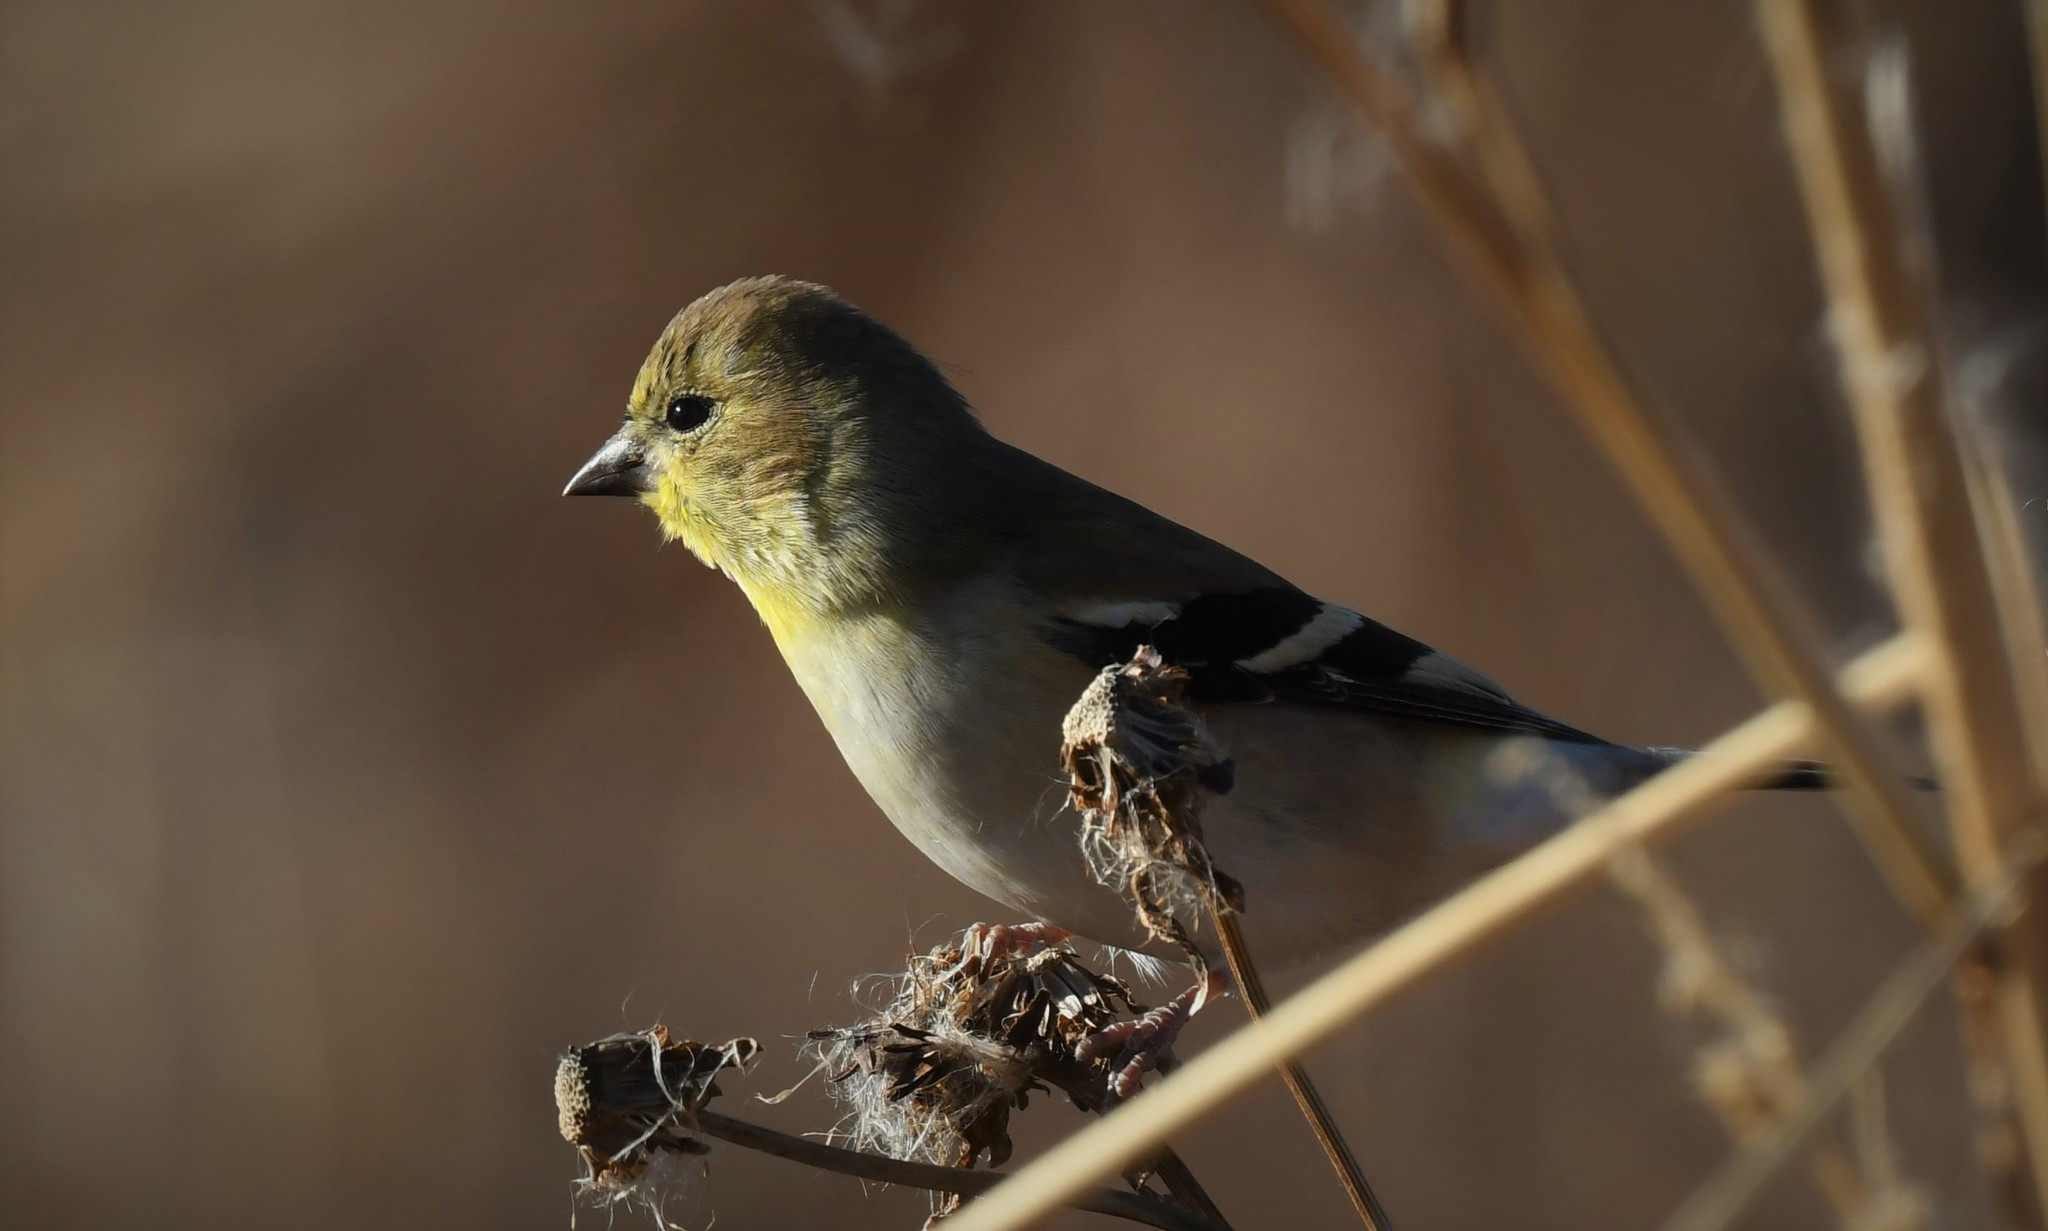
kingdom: Animalia
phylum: Chordata
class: Aves
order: Passeriformes
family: Fringillidae
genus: Spinus
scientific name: Spinus tristis
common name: American goldfinch
